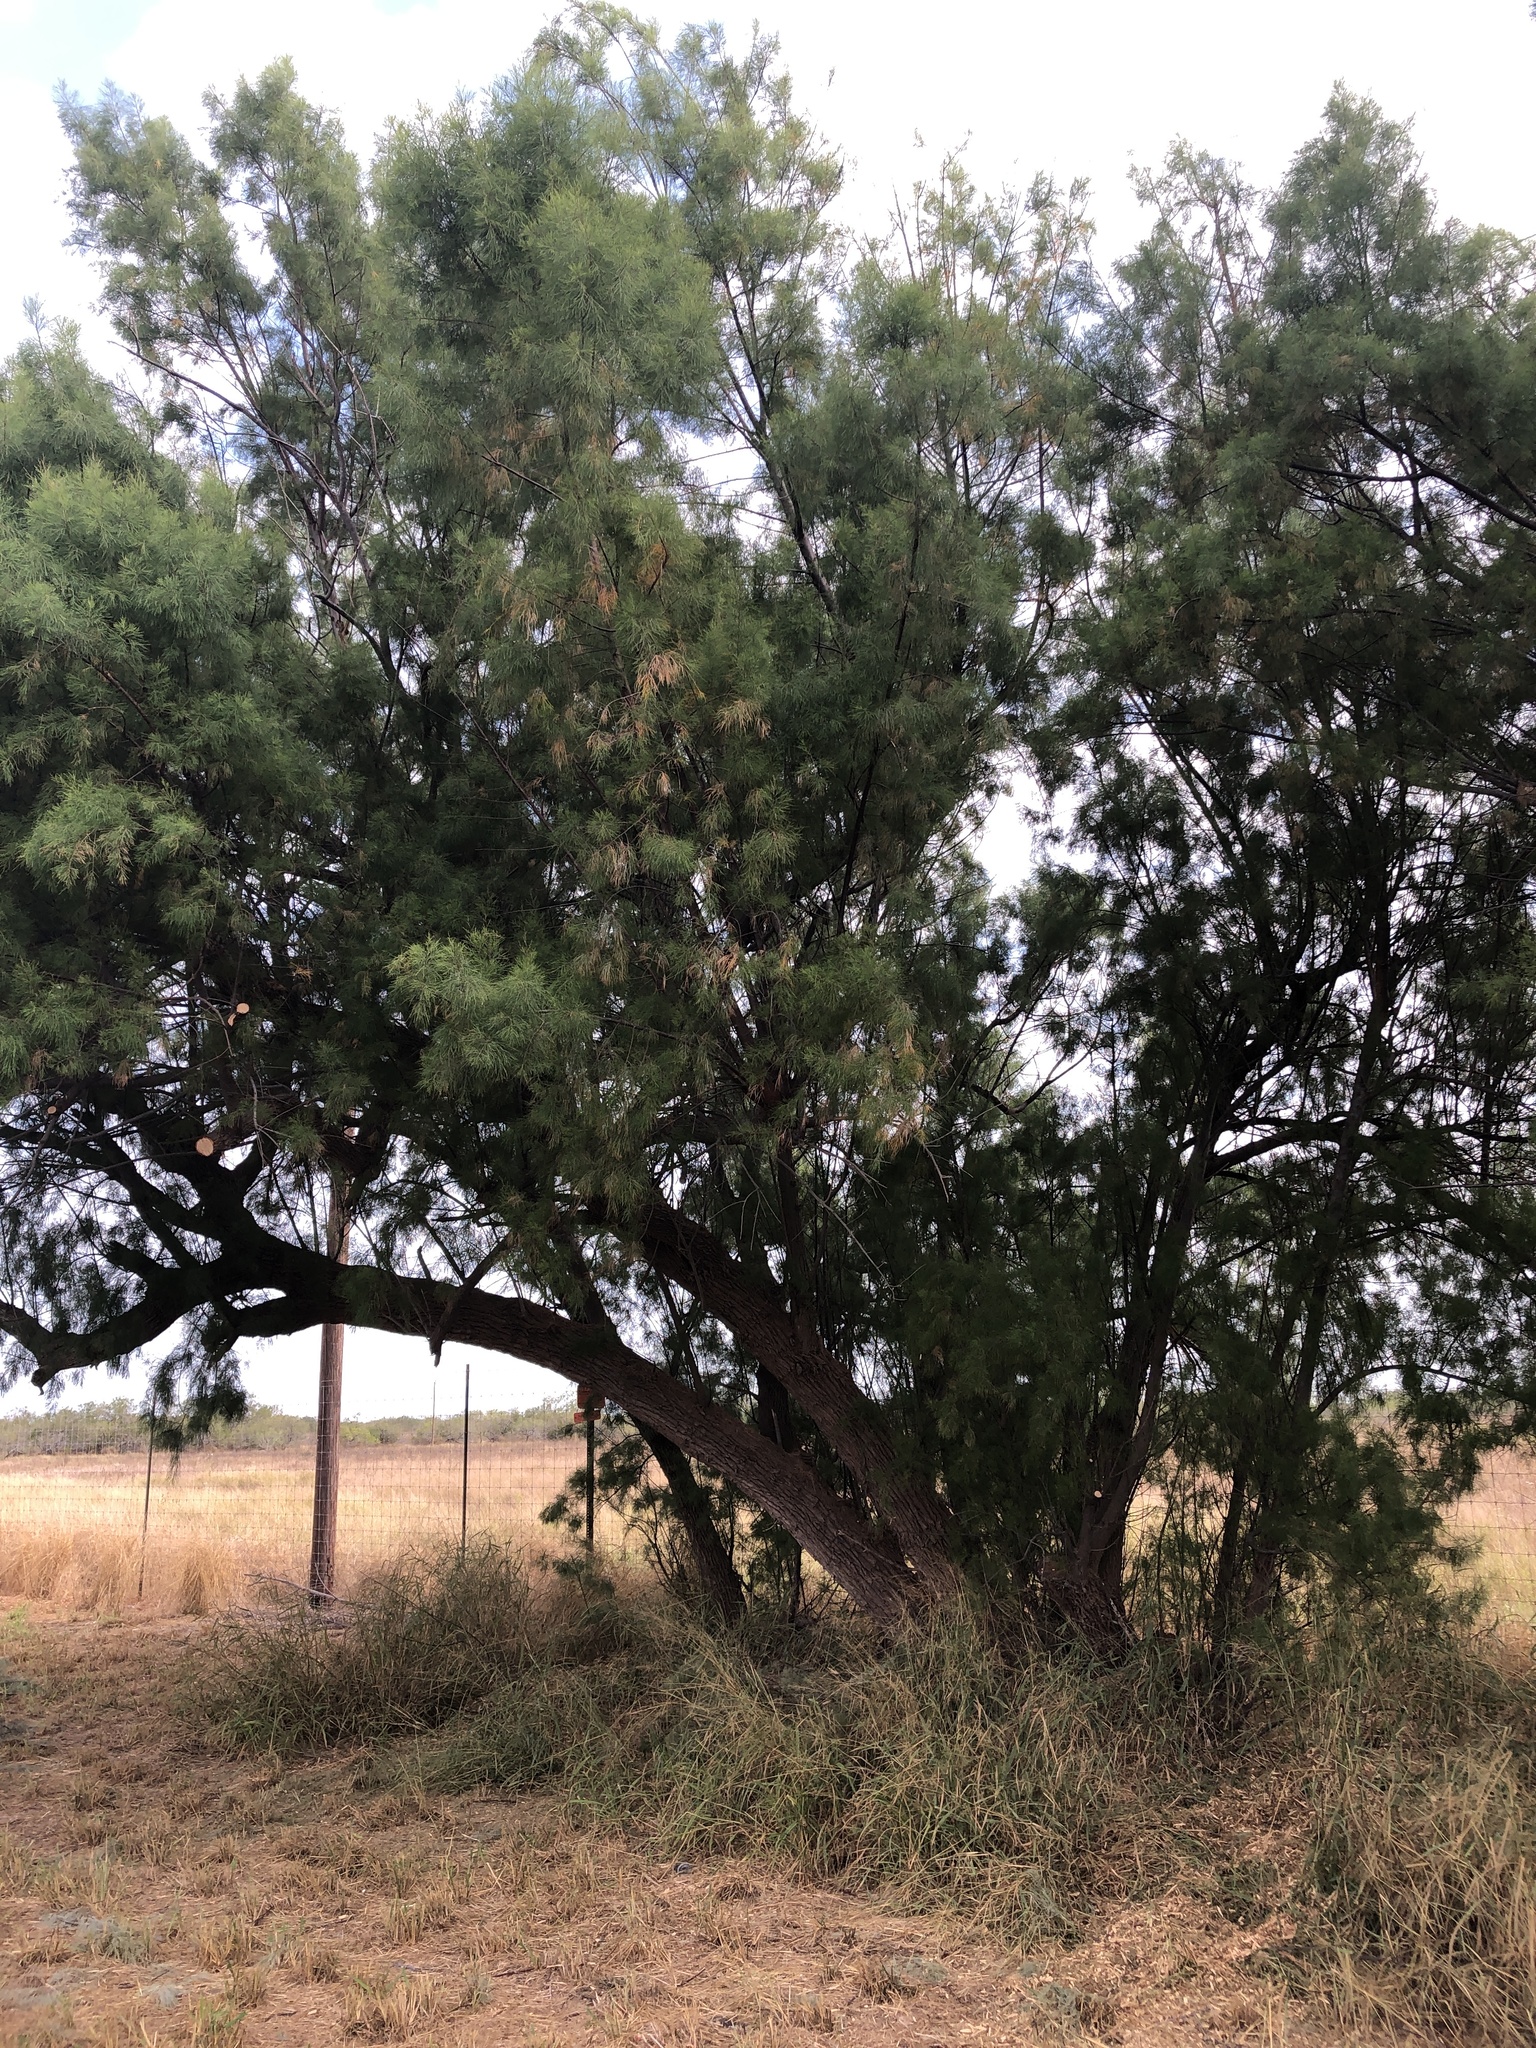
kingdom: Plantae
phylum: Tracheophyta
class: Magnoliopsida
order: Caryophyllales
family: Tamaricaceae
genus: Tamarix
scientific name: Tamarix aphylla
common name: Athel tamarisk
